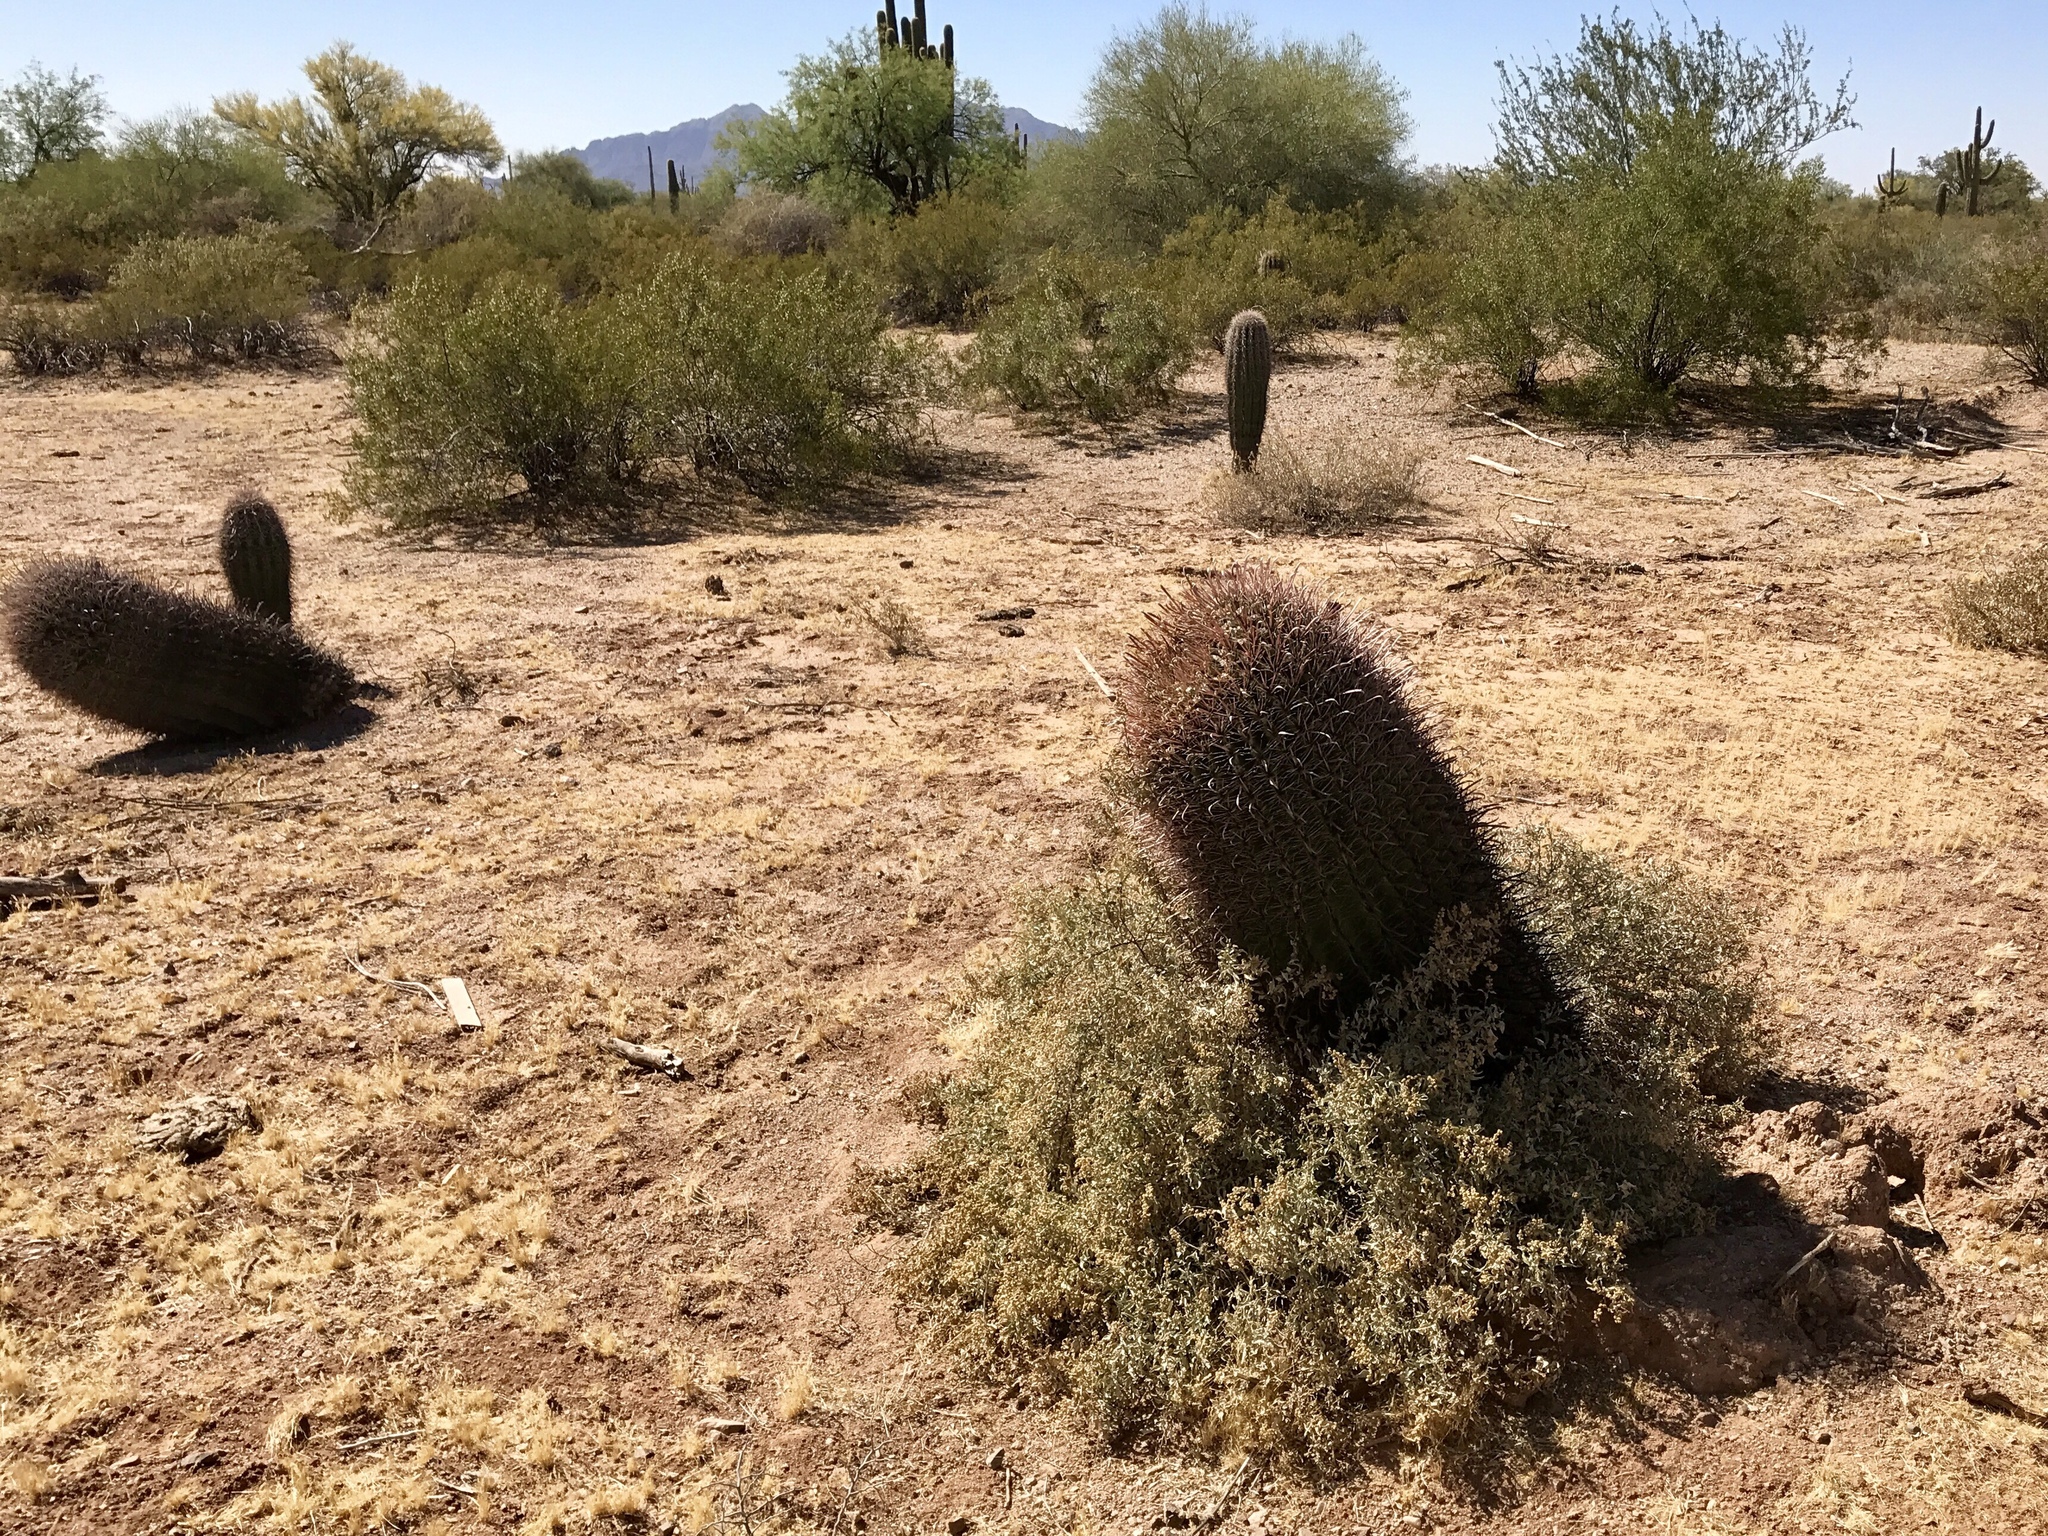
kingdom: Plantae
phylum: Tracheophyta
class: Magnoliopsida
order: Caryophyllales
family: Cactaceae
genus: Ferocactus
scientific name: Ferocactus wislizeni
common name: Candy barrel cactus
